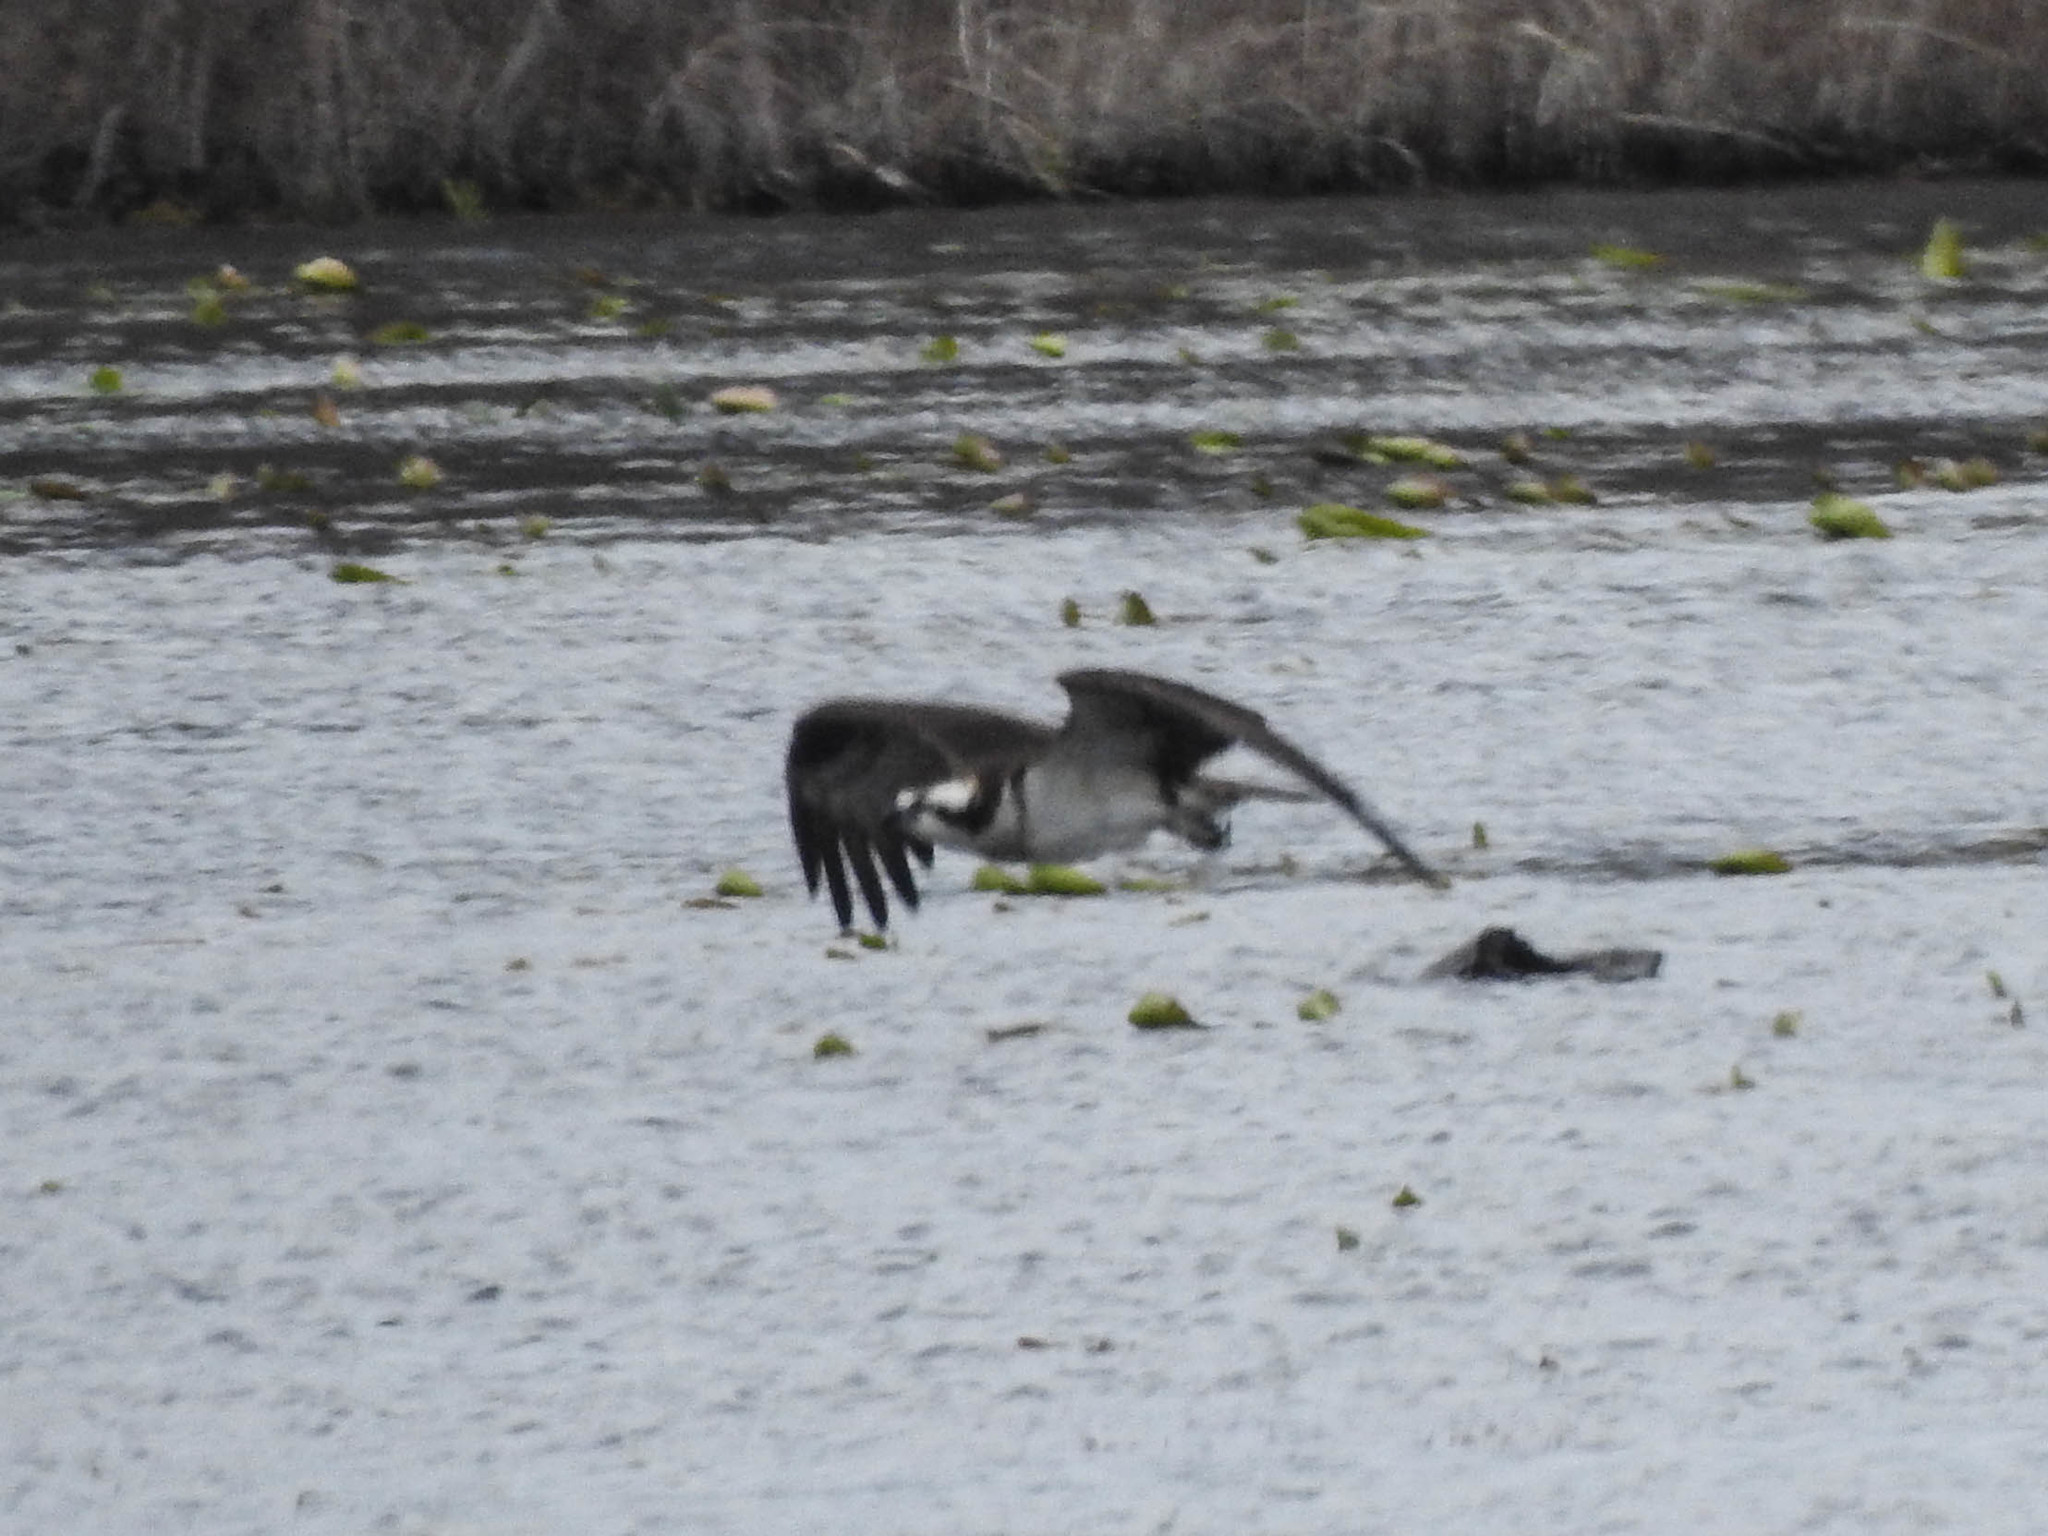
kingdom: Animalia
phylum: Chordata
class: Aves
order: Accipitriformes
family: Pandionidae
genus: Pandion
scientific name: Pandion haliaetus
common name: Osprey
